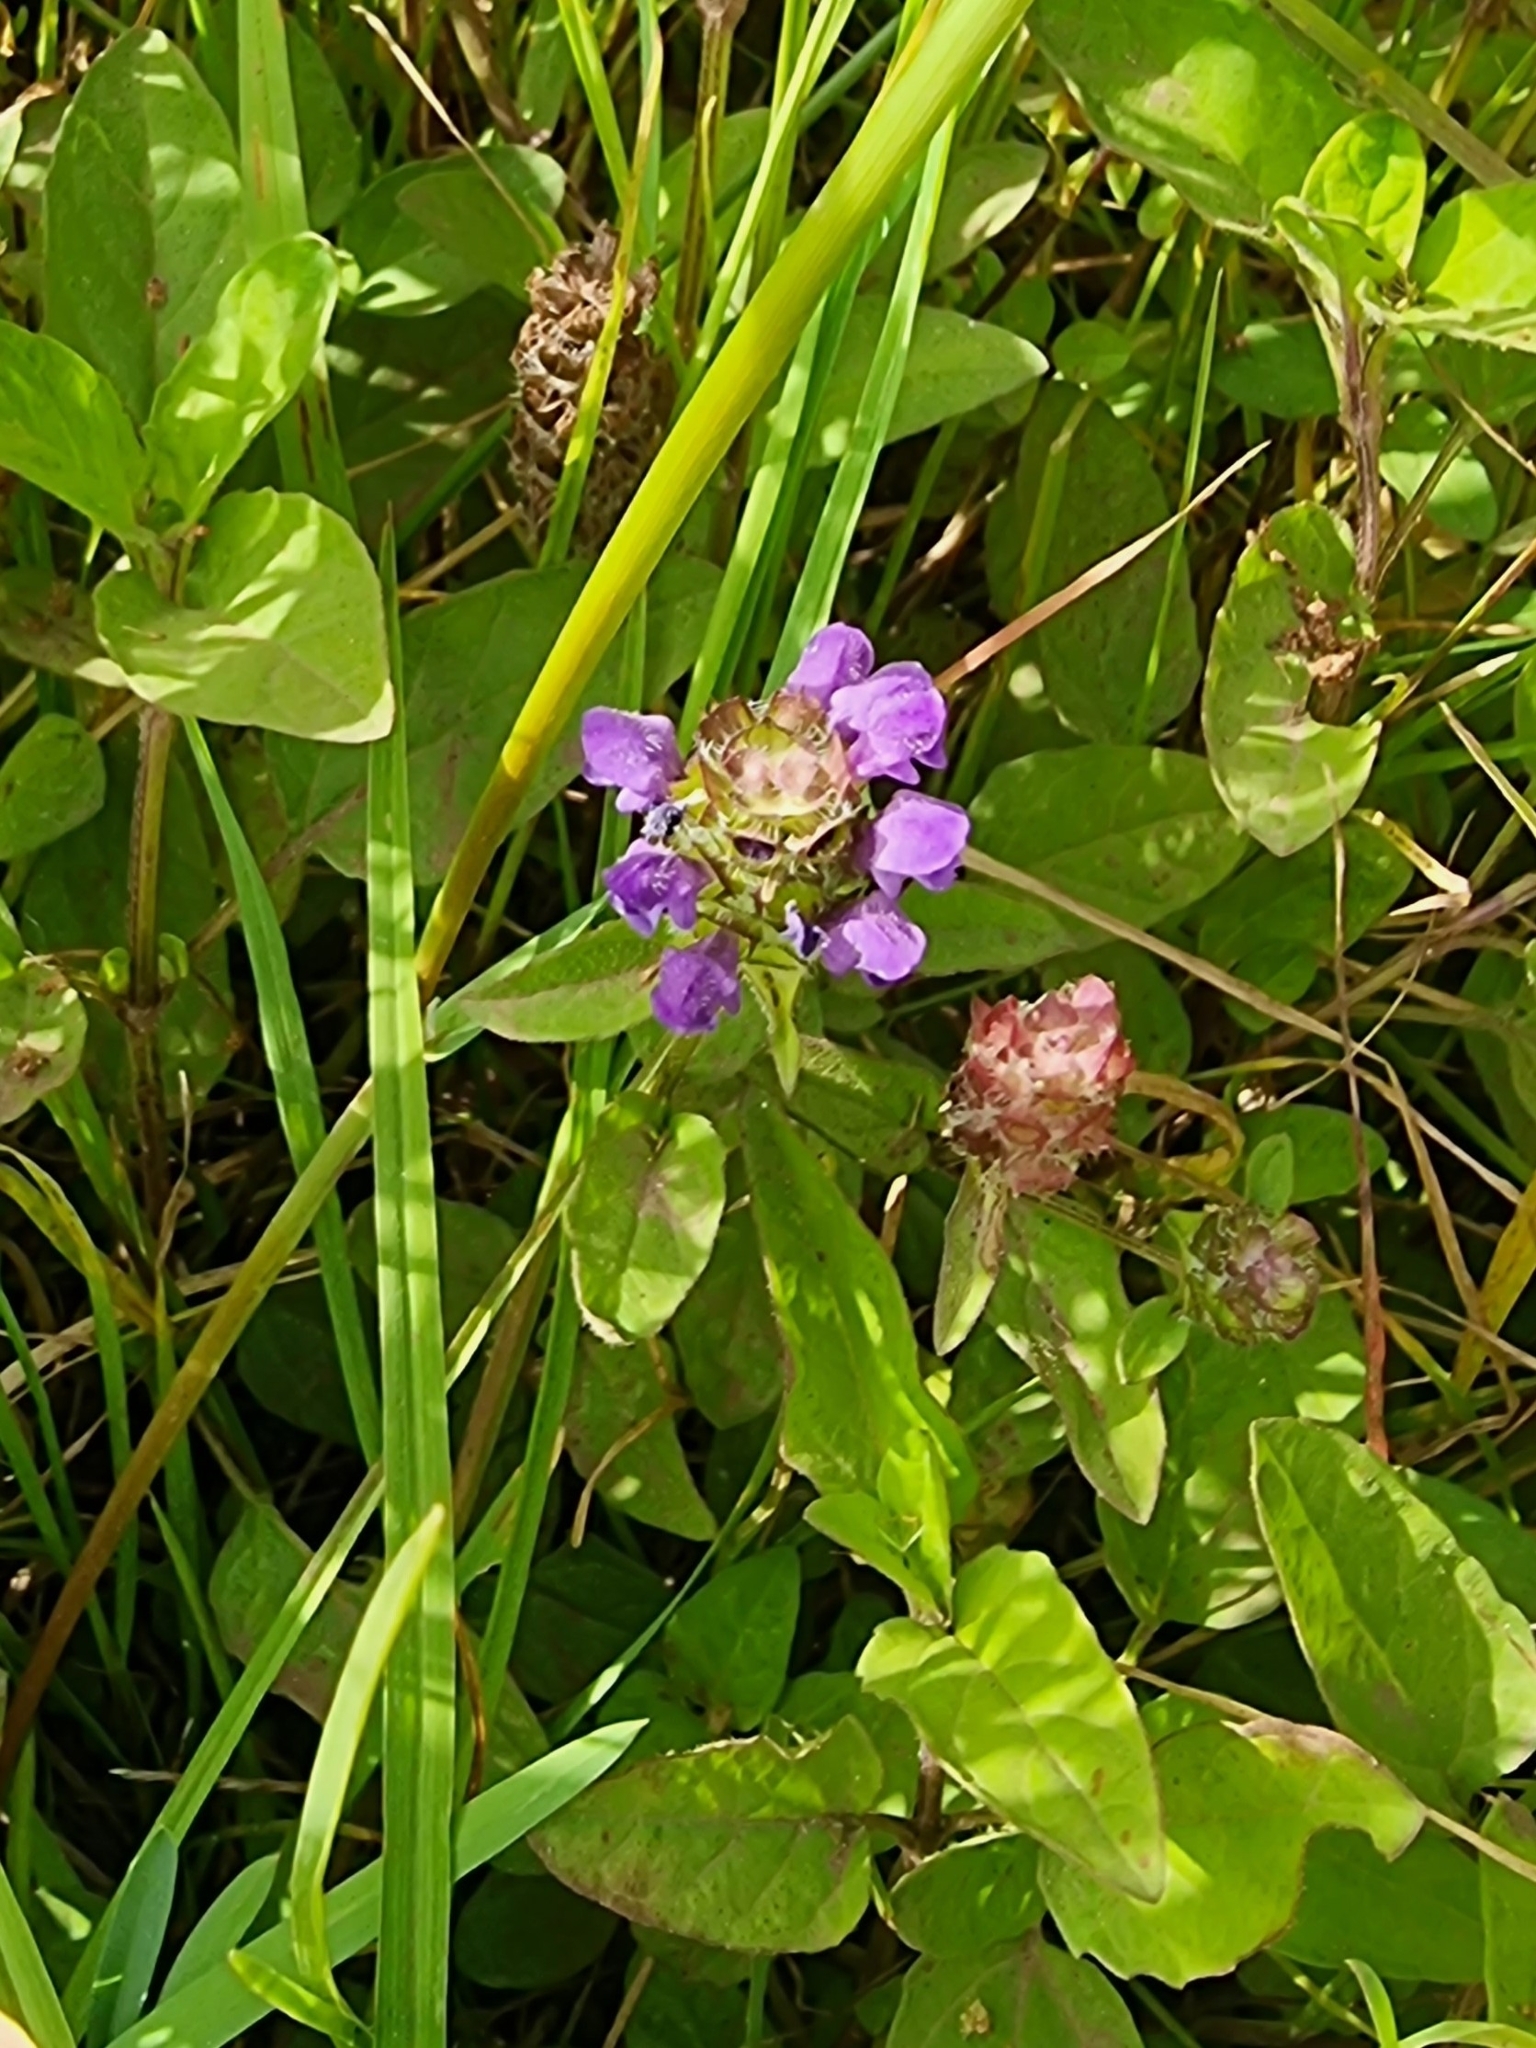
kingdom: Plantae
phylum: Tracheophyta
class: Magnoliopsida
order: Lamiales
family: Lamiaceae
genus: Prunella
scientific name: Prunella vulgaris
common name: Heal-all
